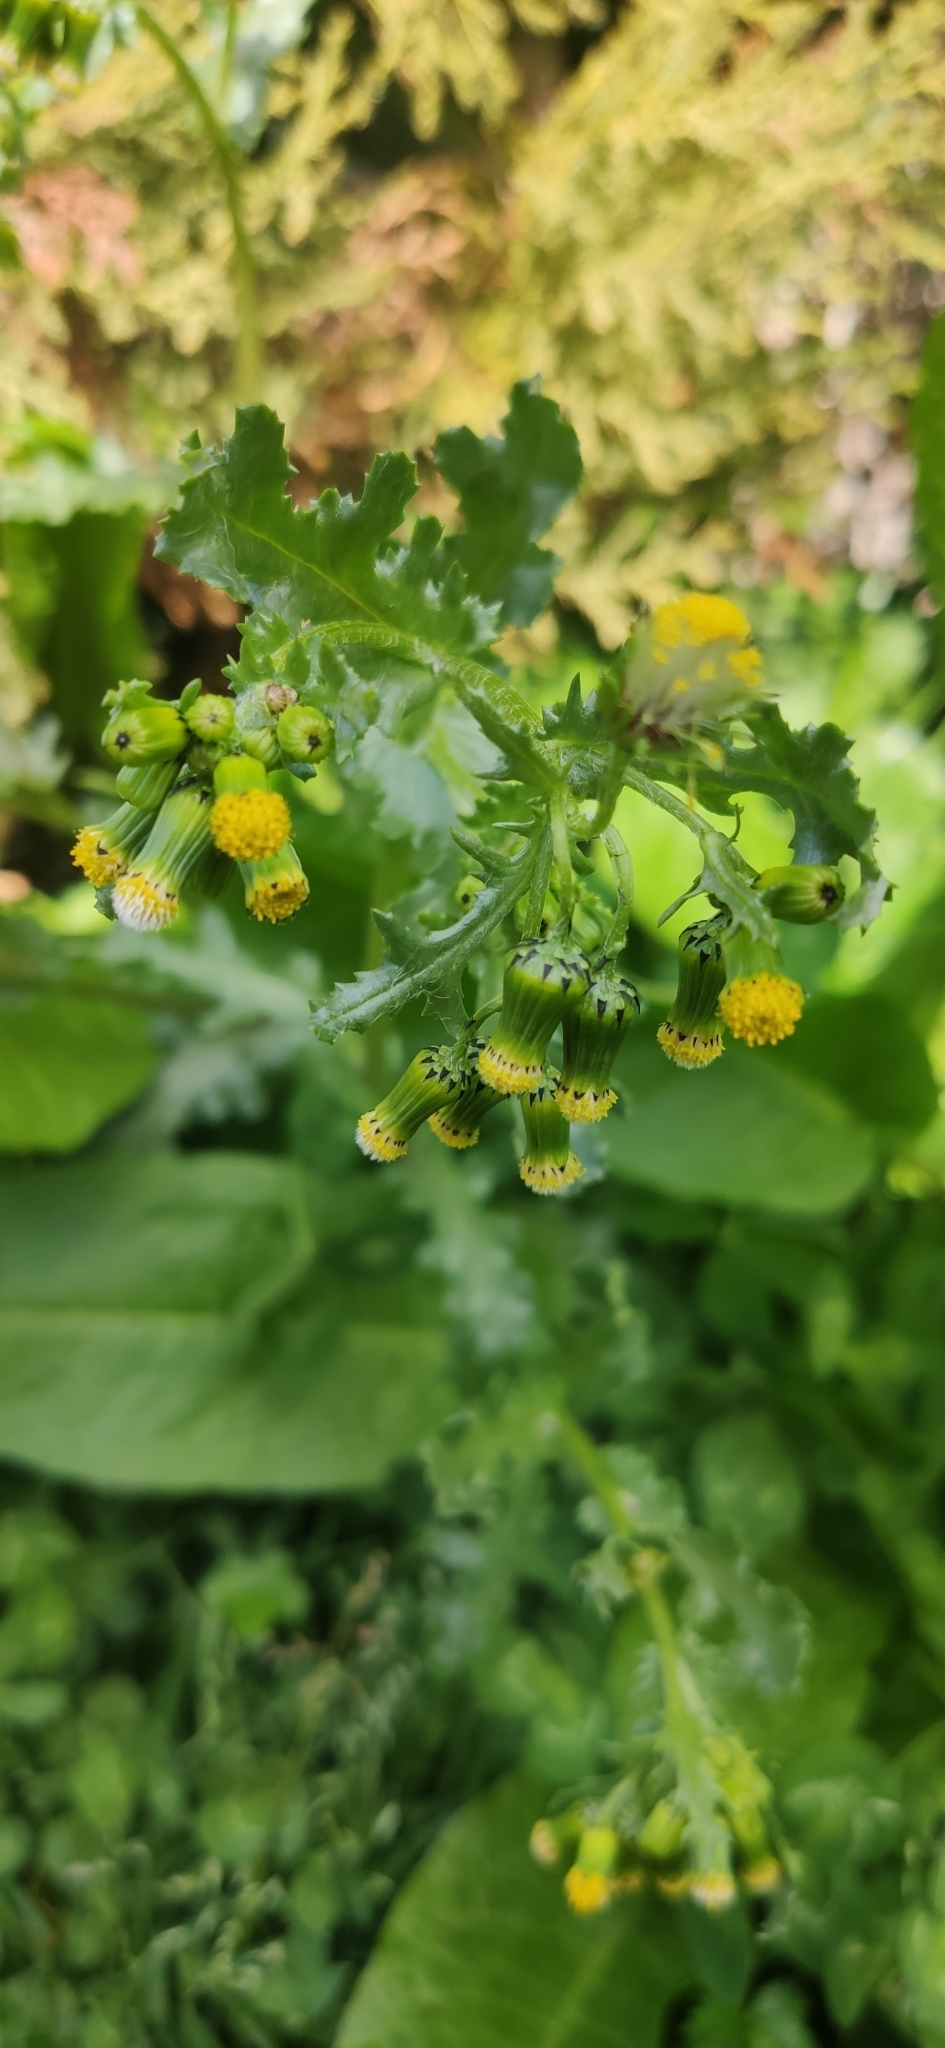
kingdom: Plantae
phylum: Tracheophyta
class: Magnoliopsida
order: Asterales
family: Asteraceae
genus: Senecio
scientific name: Senecio vulgaris
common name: Old-man-in-the-spring
